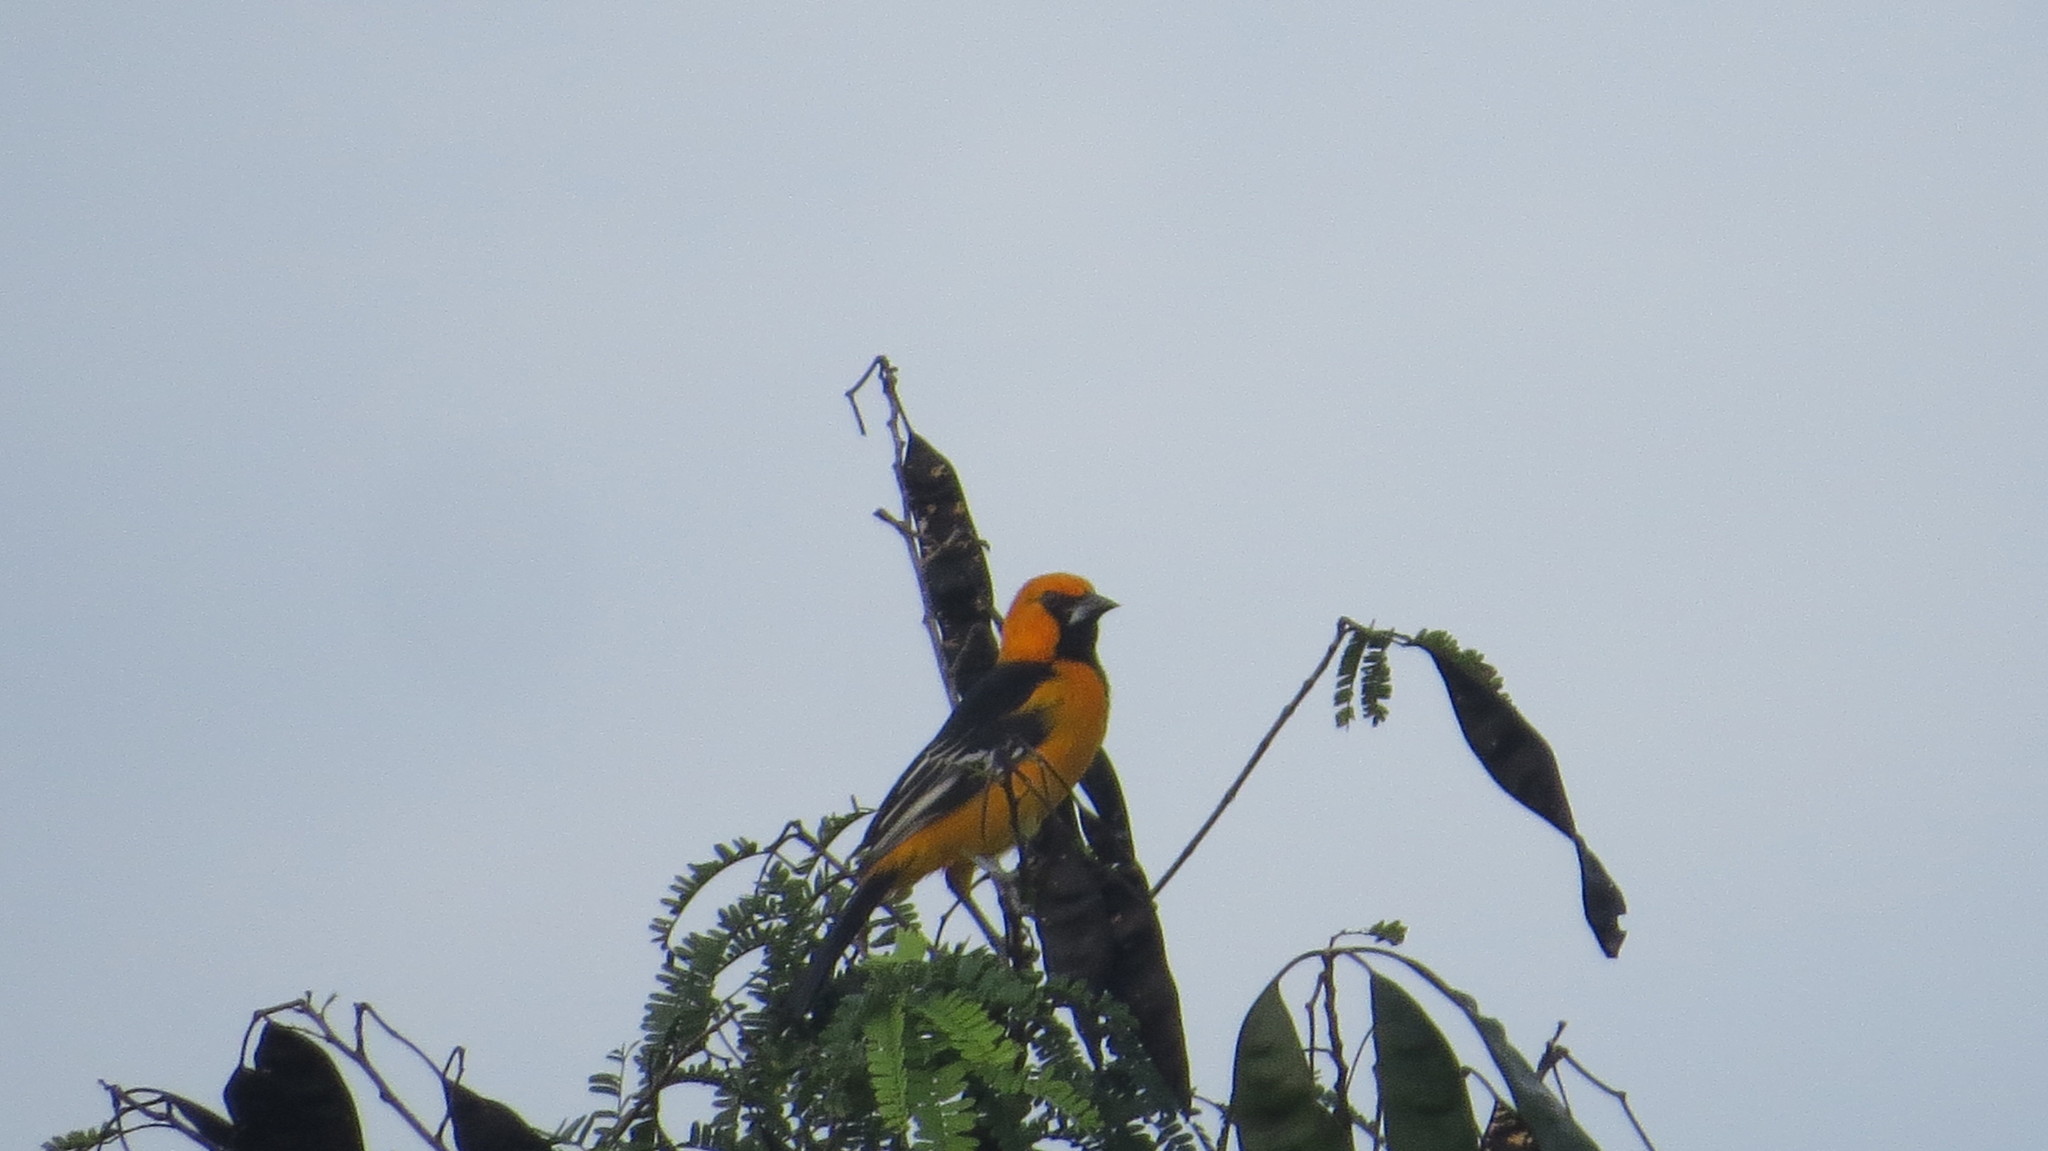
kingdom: Animalia
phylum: Chordata
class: Aves
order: Passeriformes
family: Icteridae
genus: Icterus
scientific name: Icterus gularis
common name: Altamira oriole
